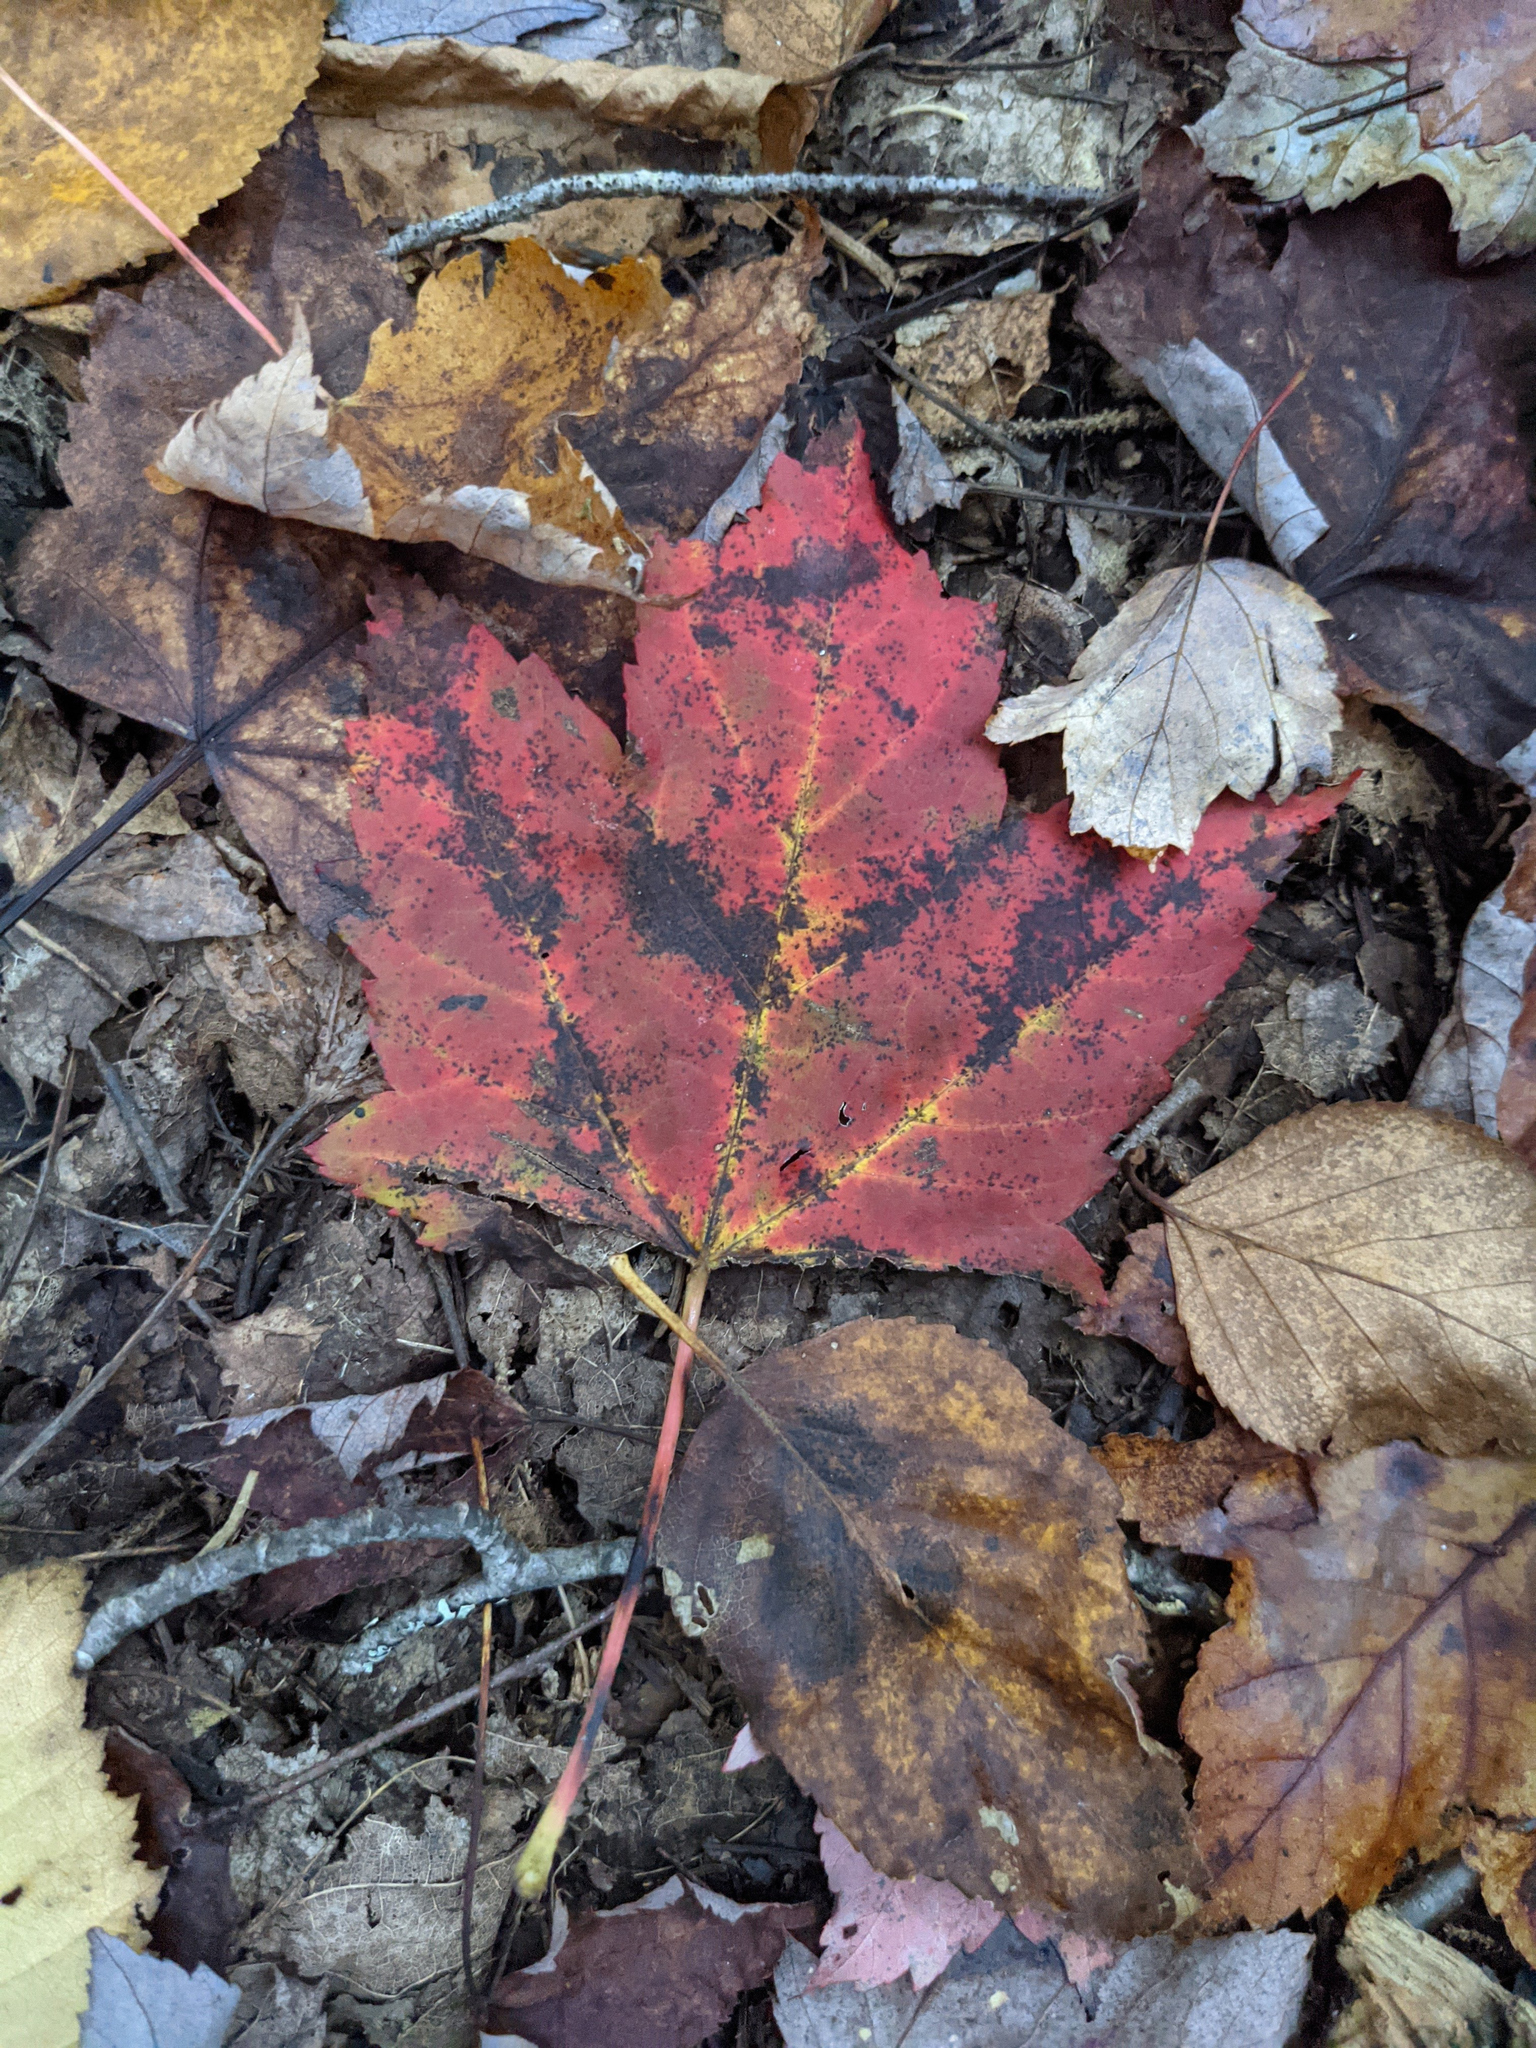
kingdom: Plantae
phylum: Tracheophyta
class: Magnoliopsida
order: Sapindales
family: Sapindaceae
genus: Acer
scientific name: Acer rubrum
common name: Red maple
